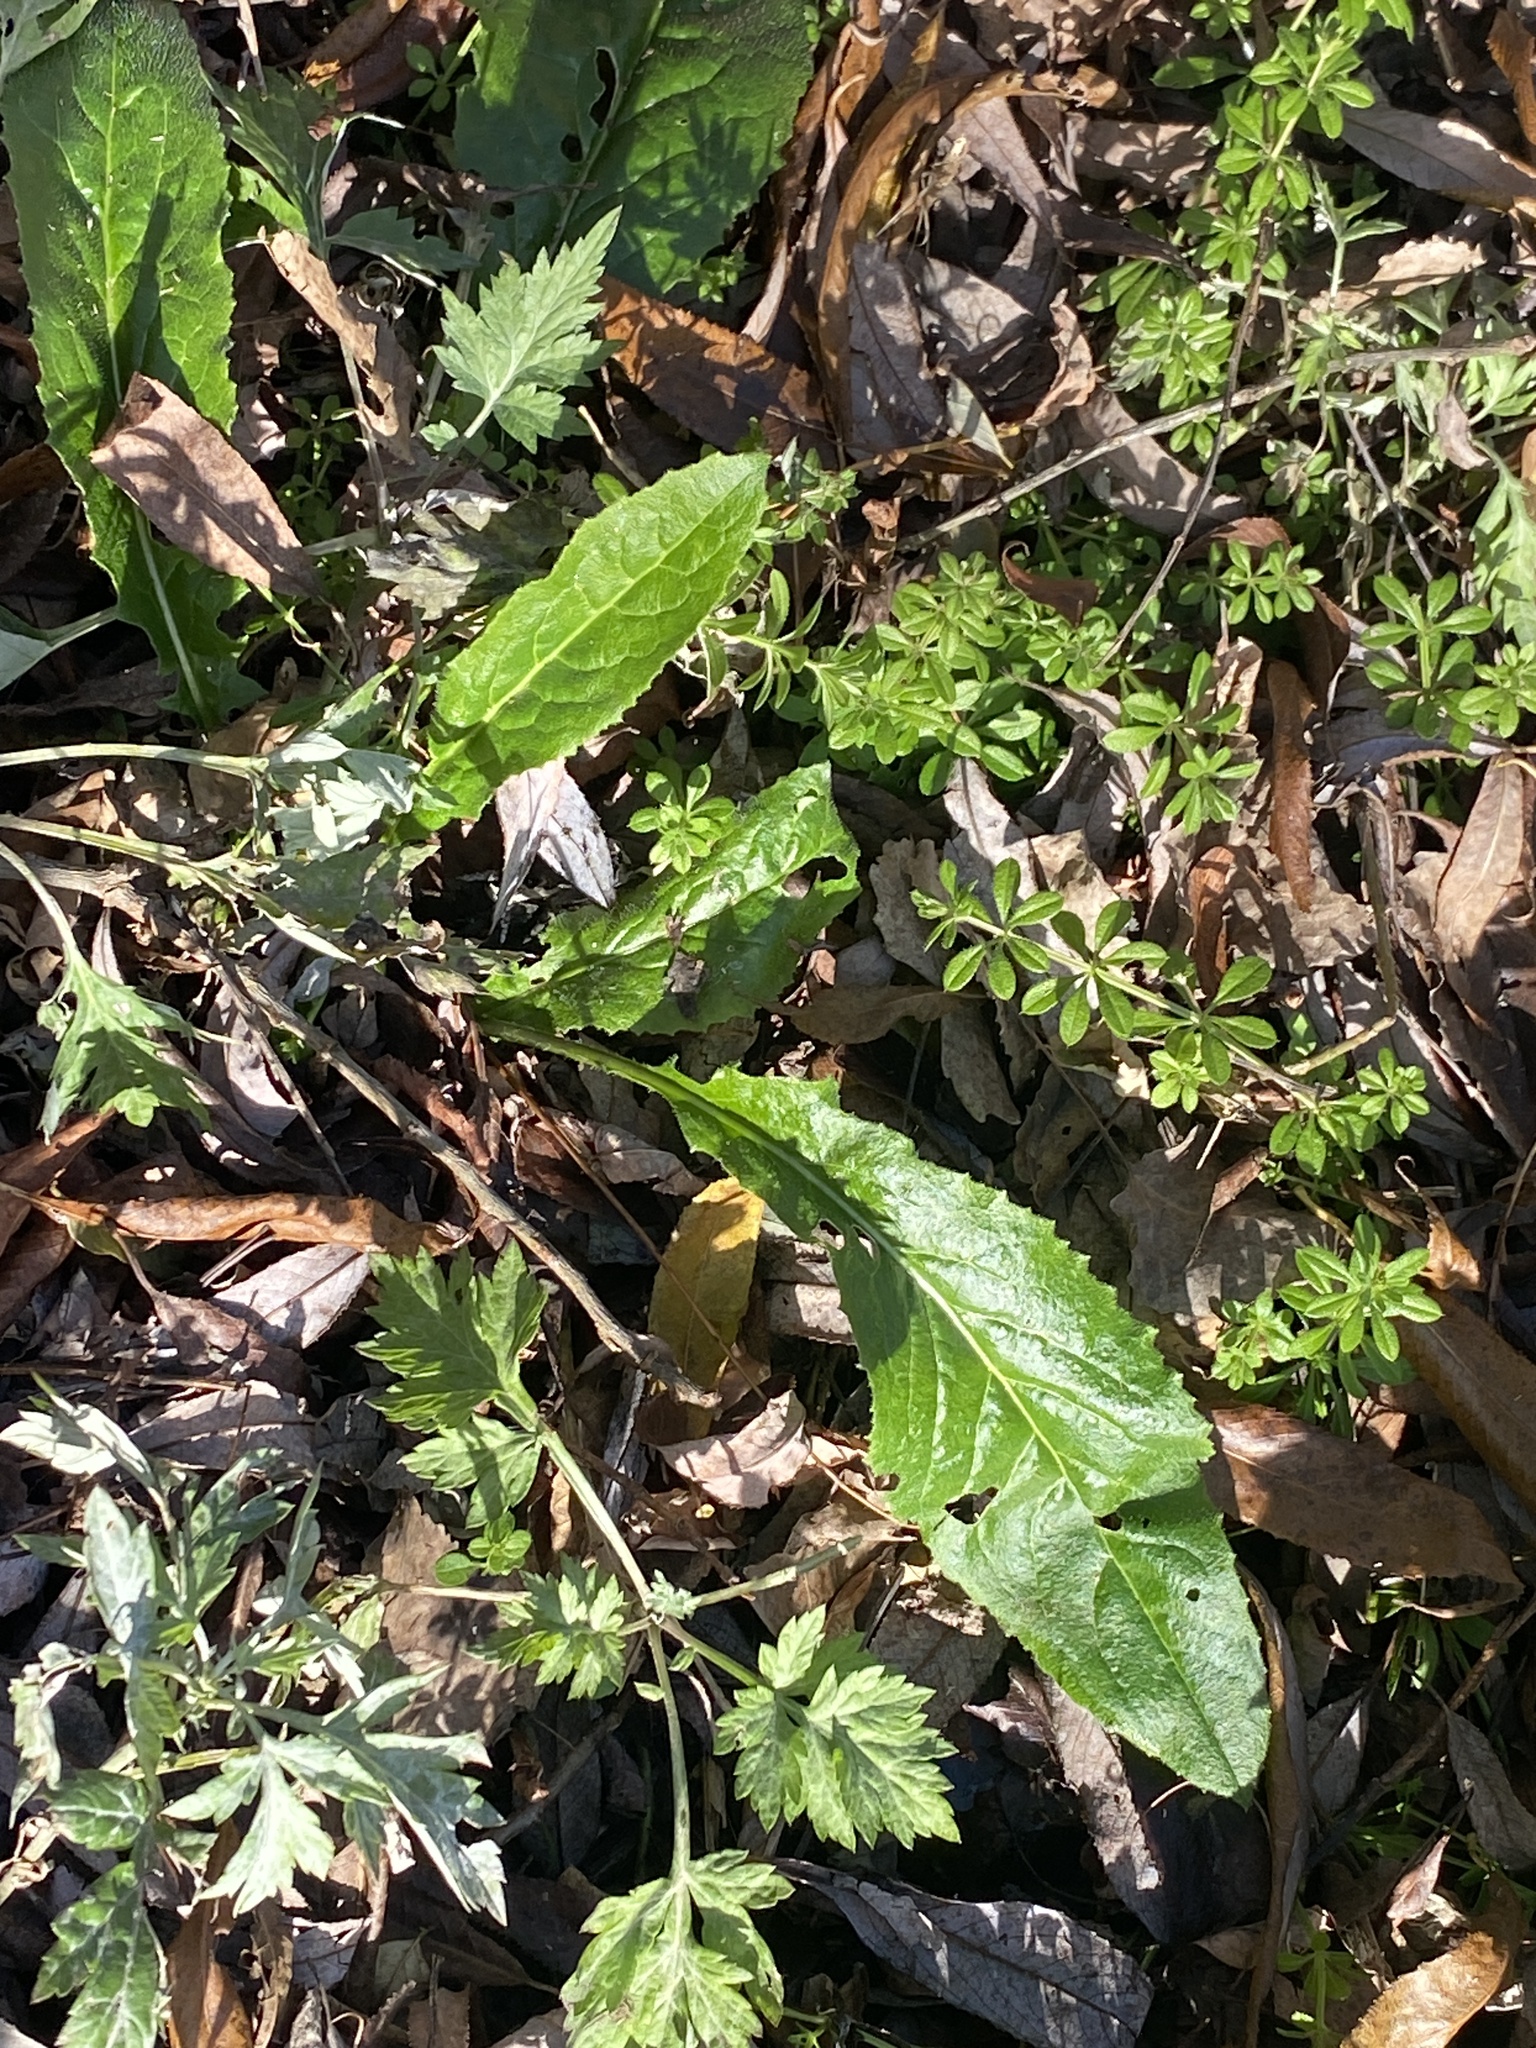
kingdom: Plantae
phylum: Tracheophyta
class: Magnoliopsida
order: Brassicales
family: Brassicaceae
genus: Hesperis
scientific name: Hesperis matronalis
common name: Dame's-violet
